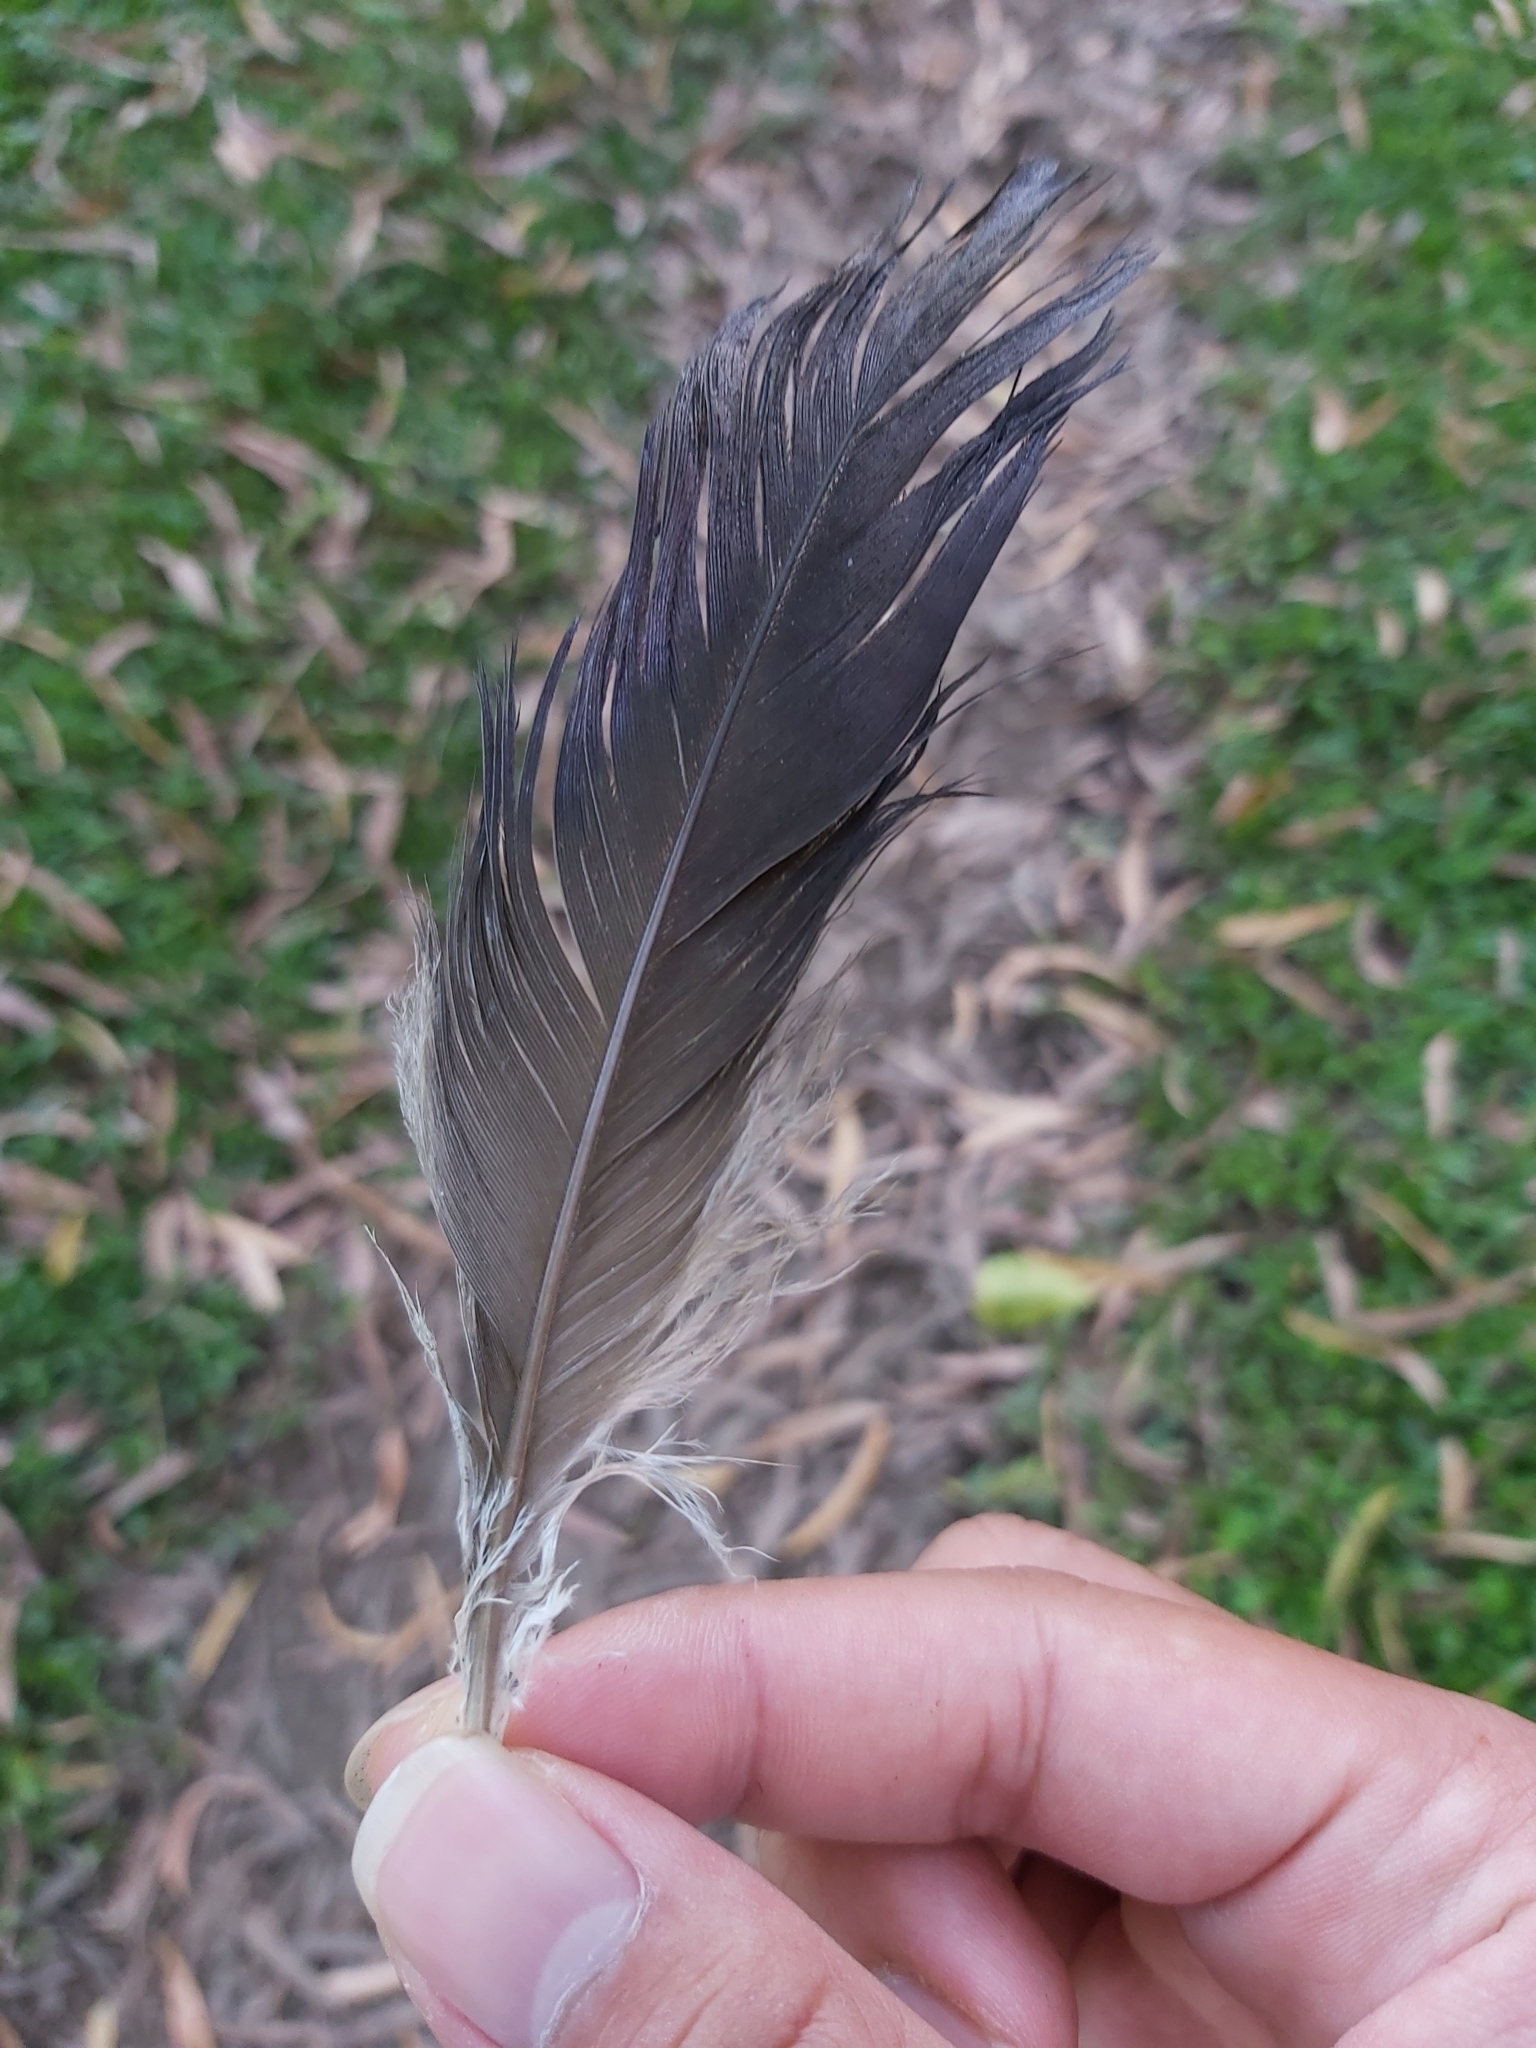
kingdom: Animalia
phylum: Chordata
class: Aves
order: Pelecaniformes
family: Threskiornithidae
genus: Threskiornis
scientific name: Threskiornis spinicollis
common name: Straw-necked ibis
